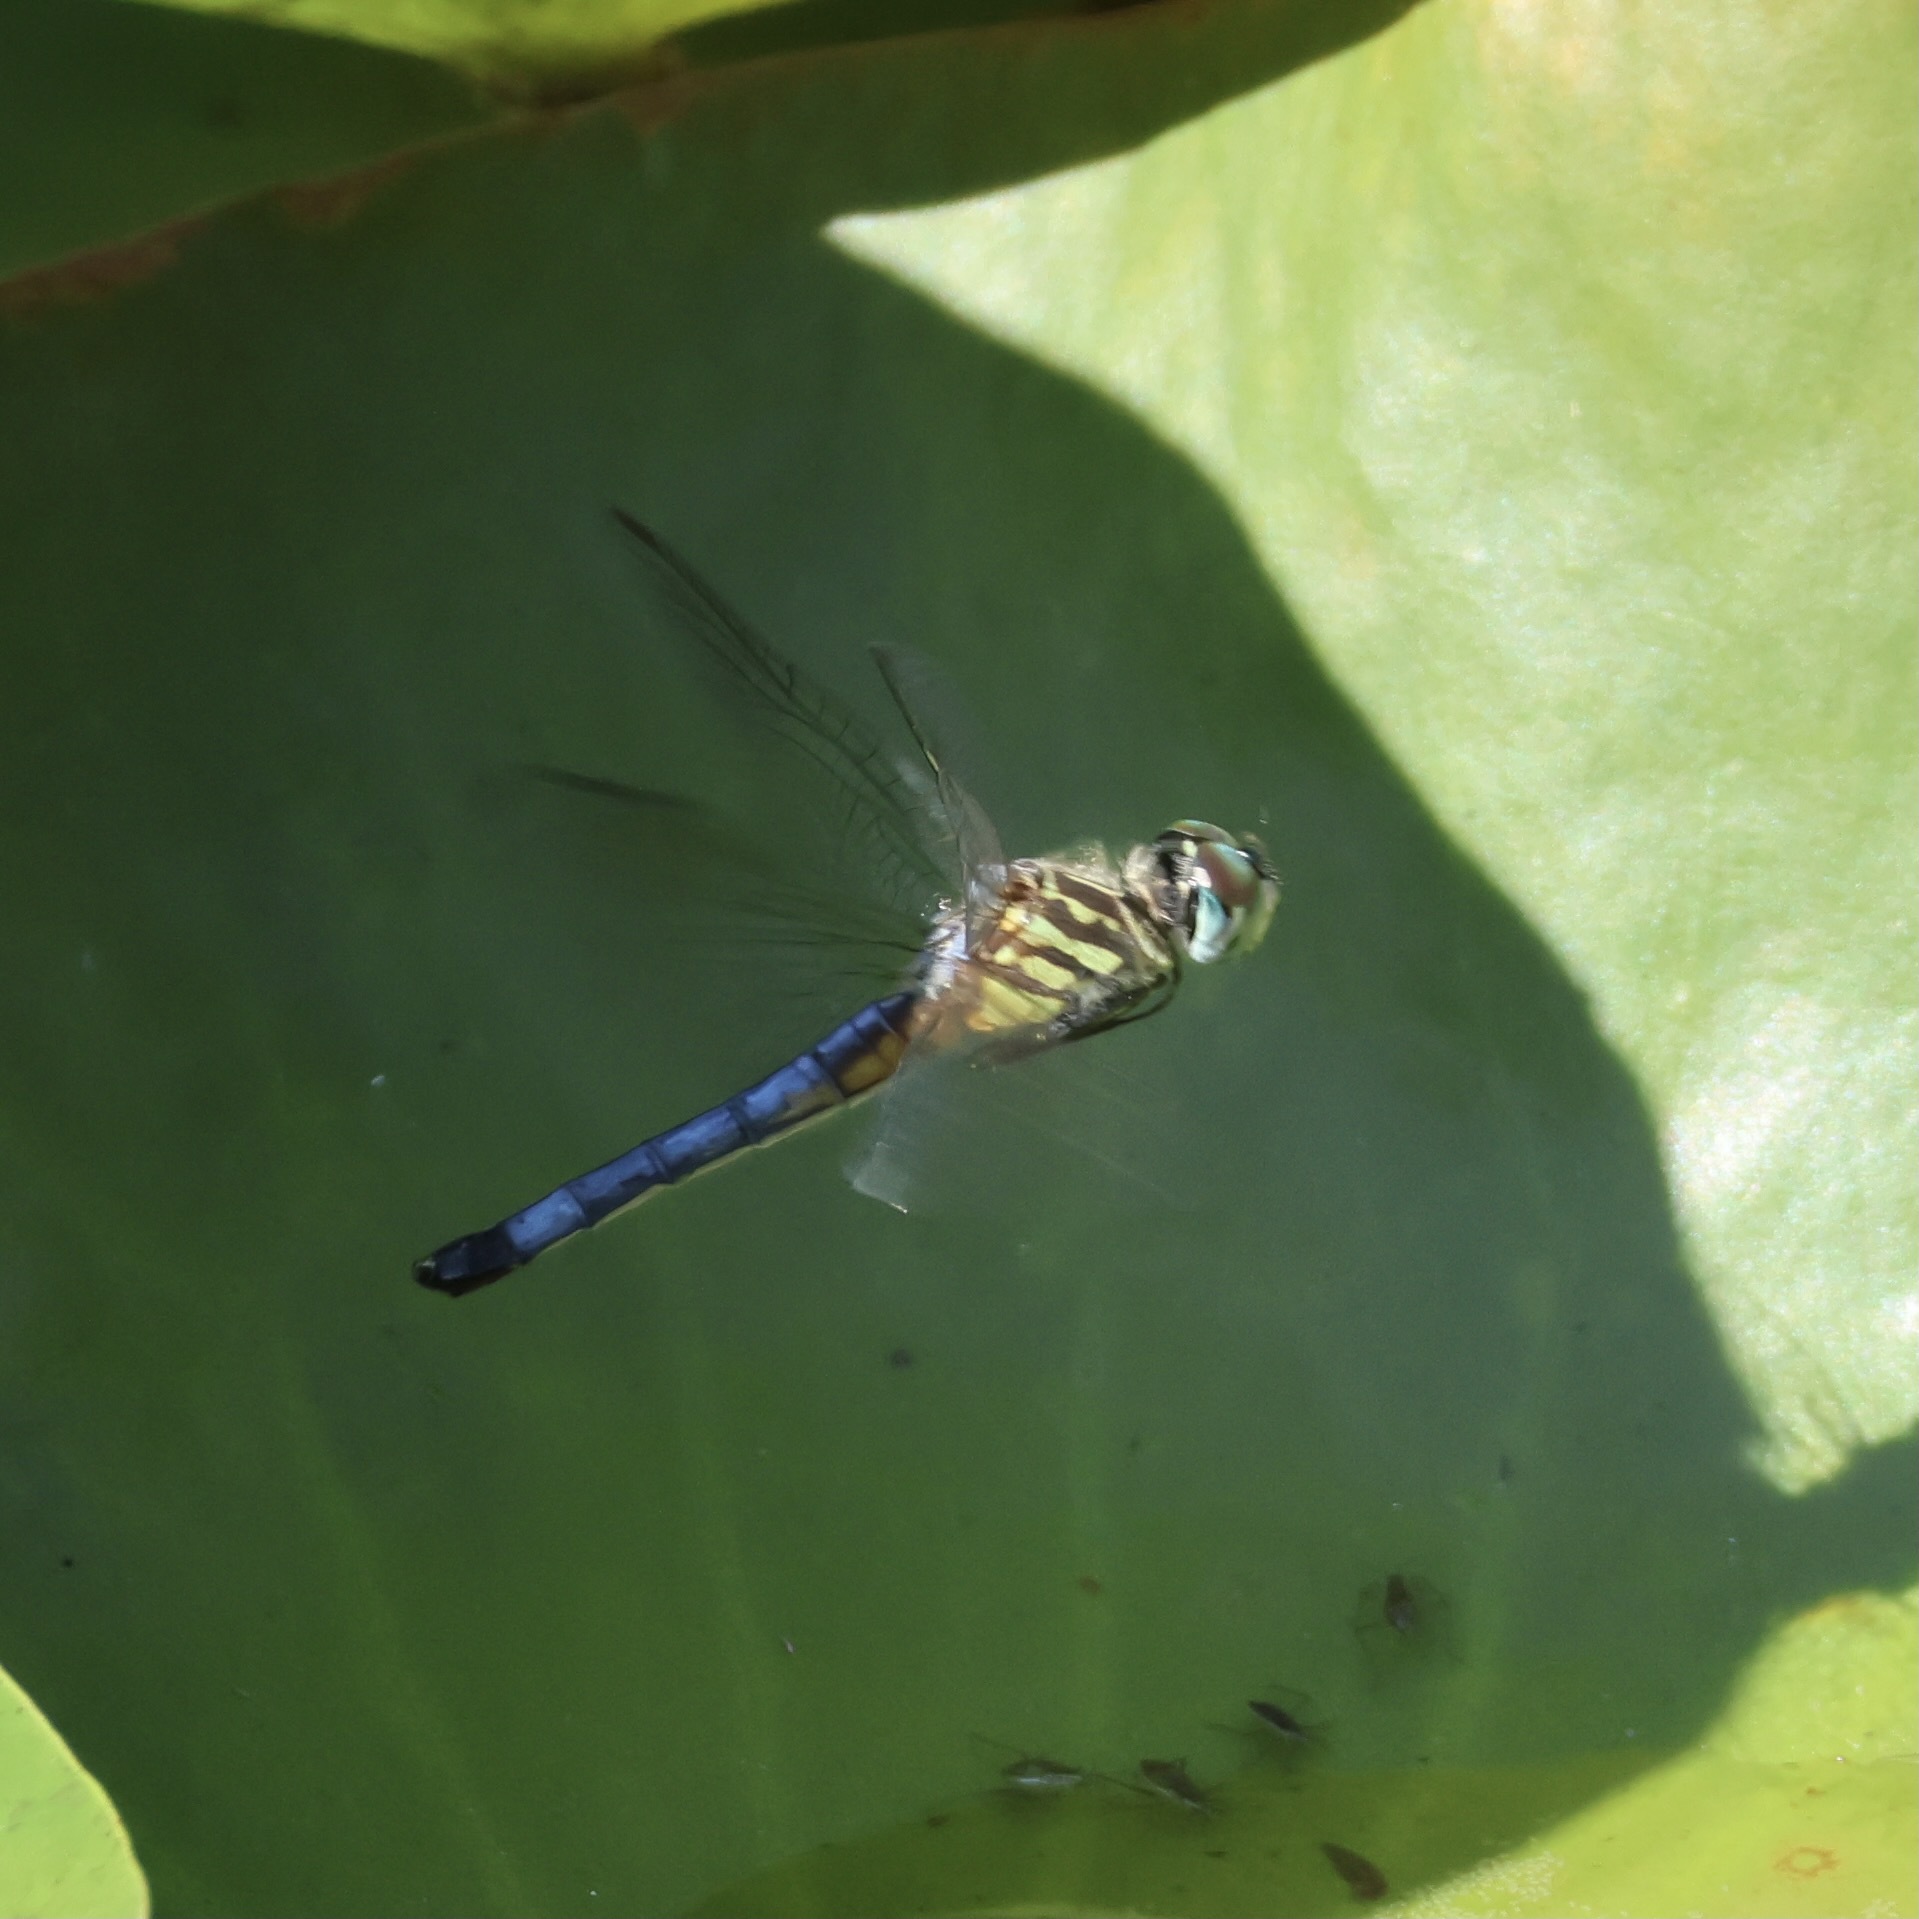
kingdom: Animalia
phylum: Arthropoda
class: Insecta
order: Odonata
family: Libellulidae
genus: Pachydiplax
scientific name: Pachydiplax longipennis
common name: Blue dasher
